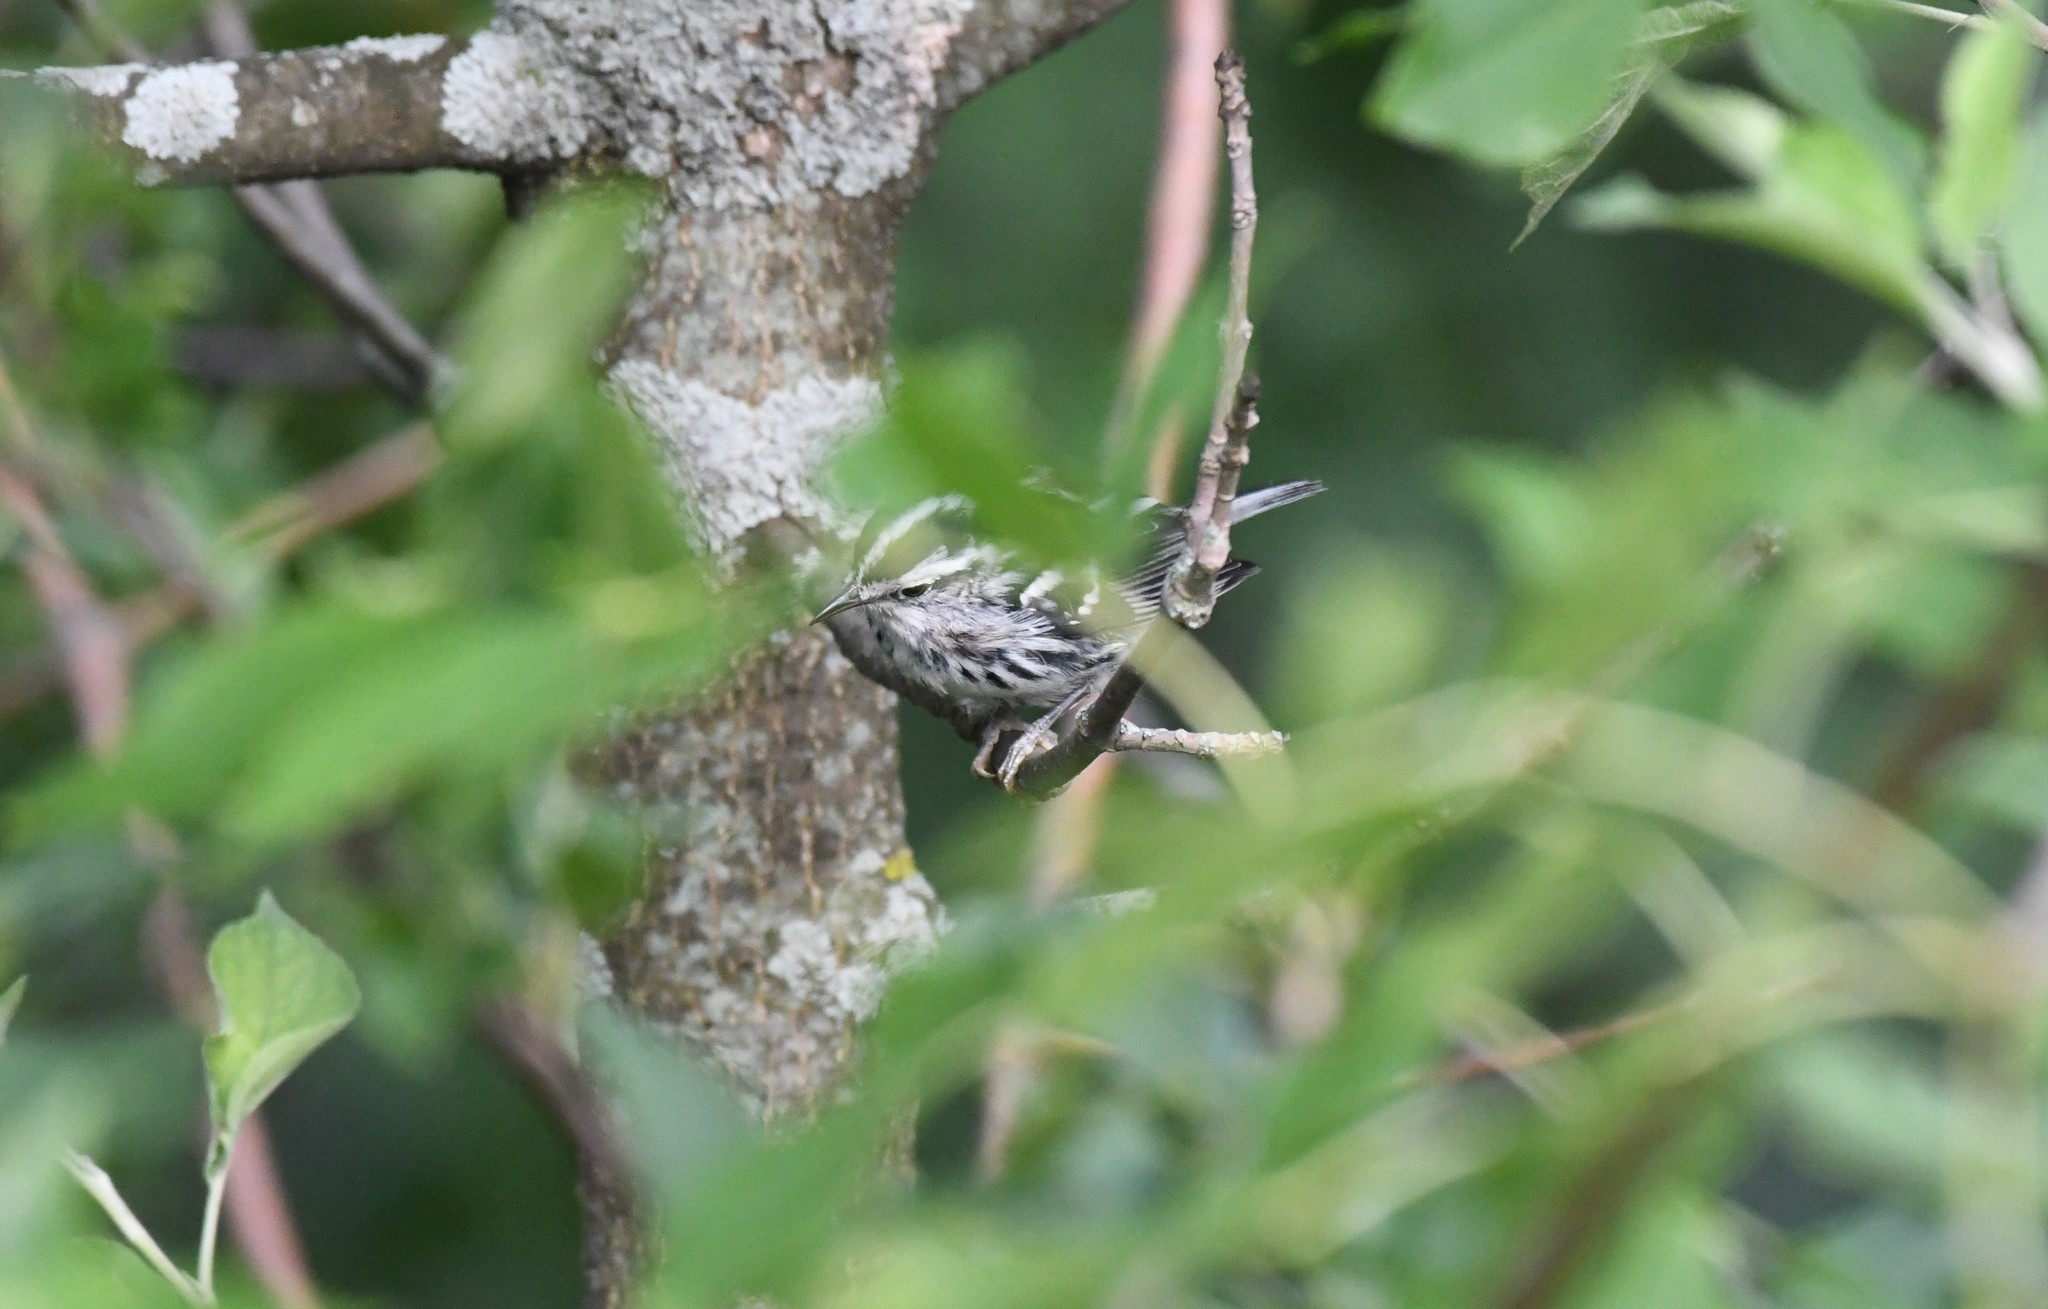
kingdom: Animalia
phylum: Chordata
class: Aves
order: Passeriformes
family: Parulidae
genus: Mniotilta
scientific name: Mniotilta varia
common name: Black-and-white warbler
